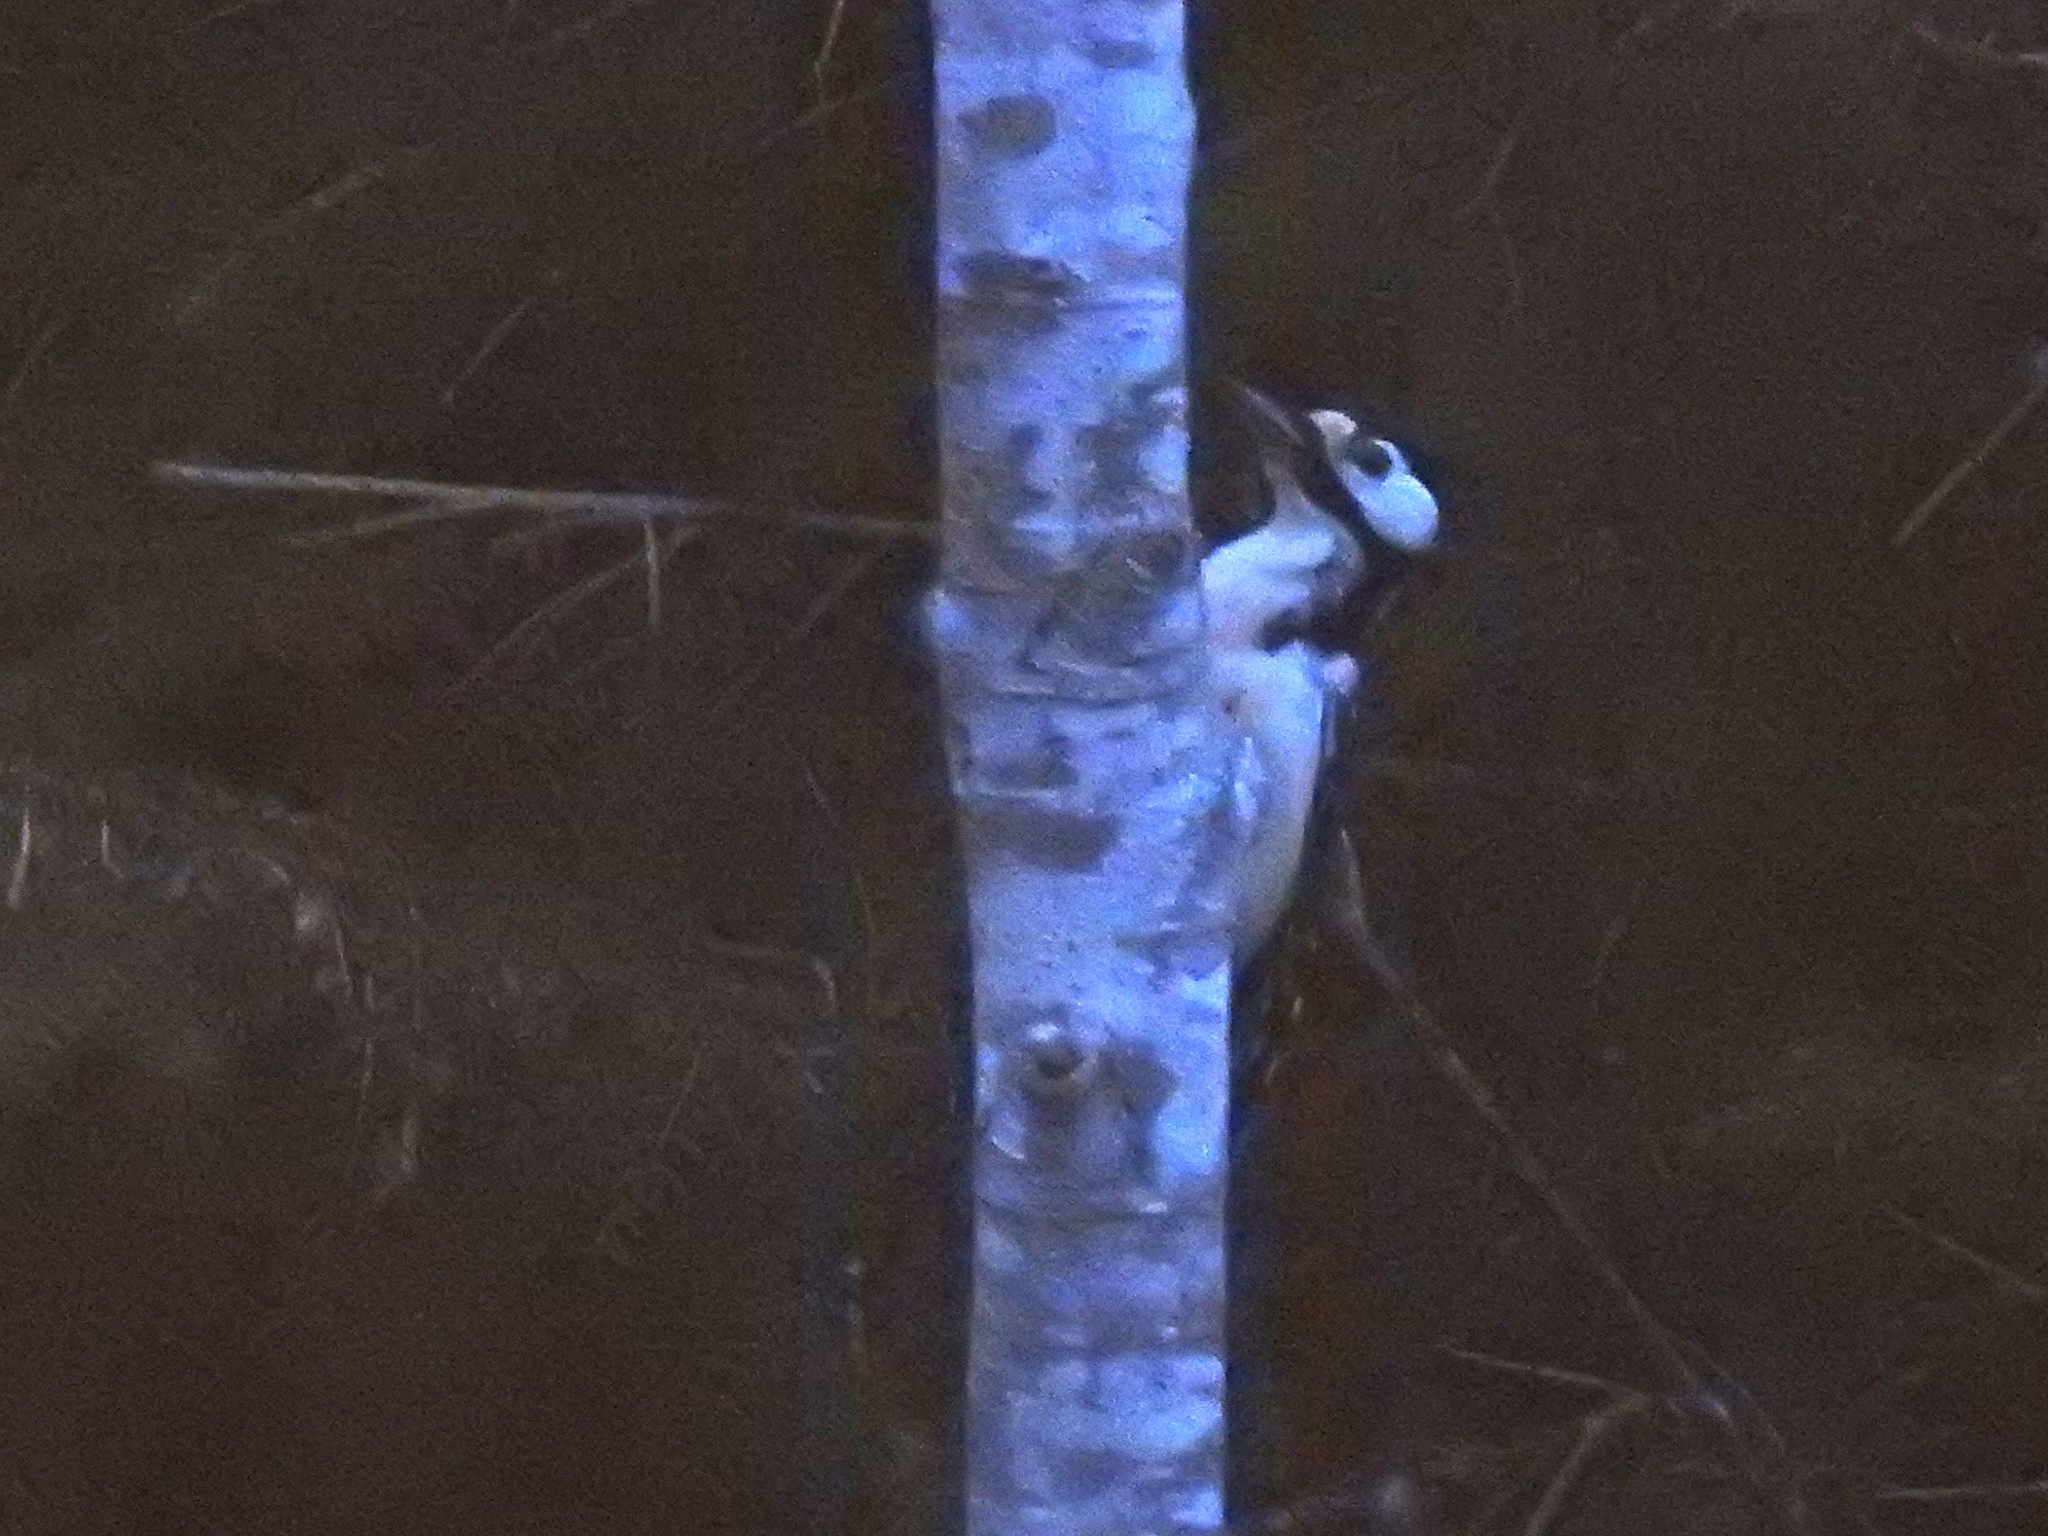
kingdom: Animalia
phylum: Chordata
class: Aves
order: Piciformes
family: Picidae
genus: Dendrocopos
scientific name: Dendrocopos major
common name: Great spotted woodpecker
